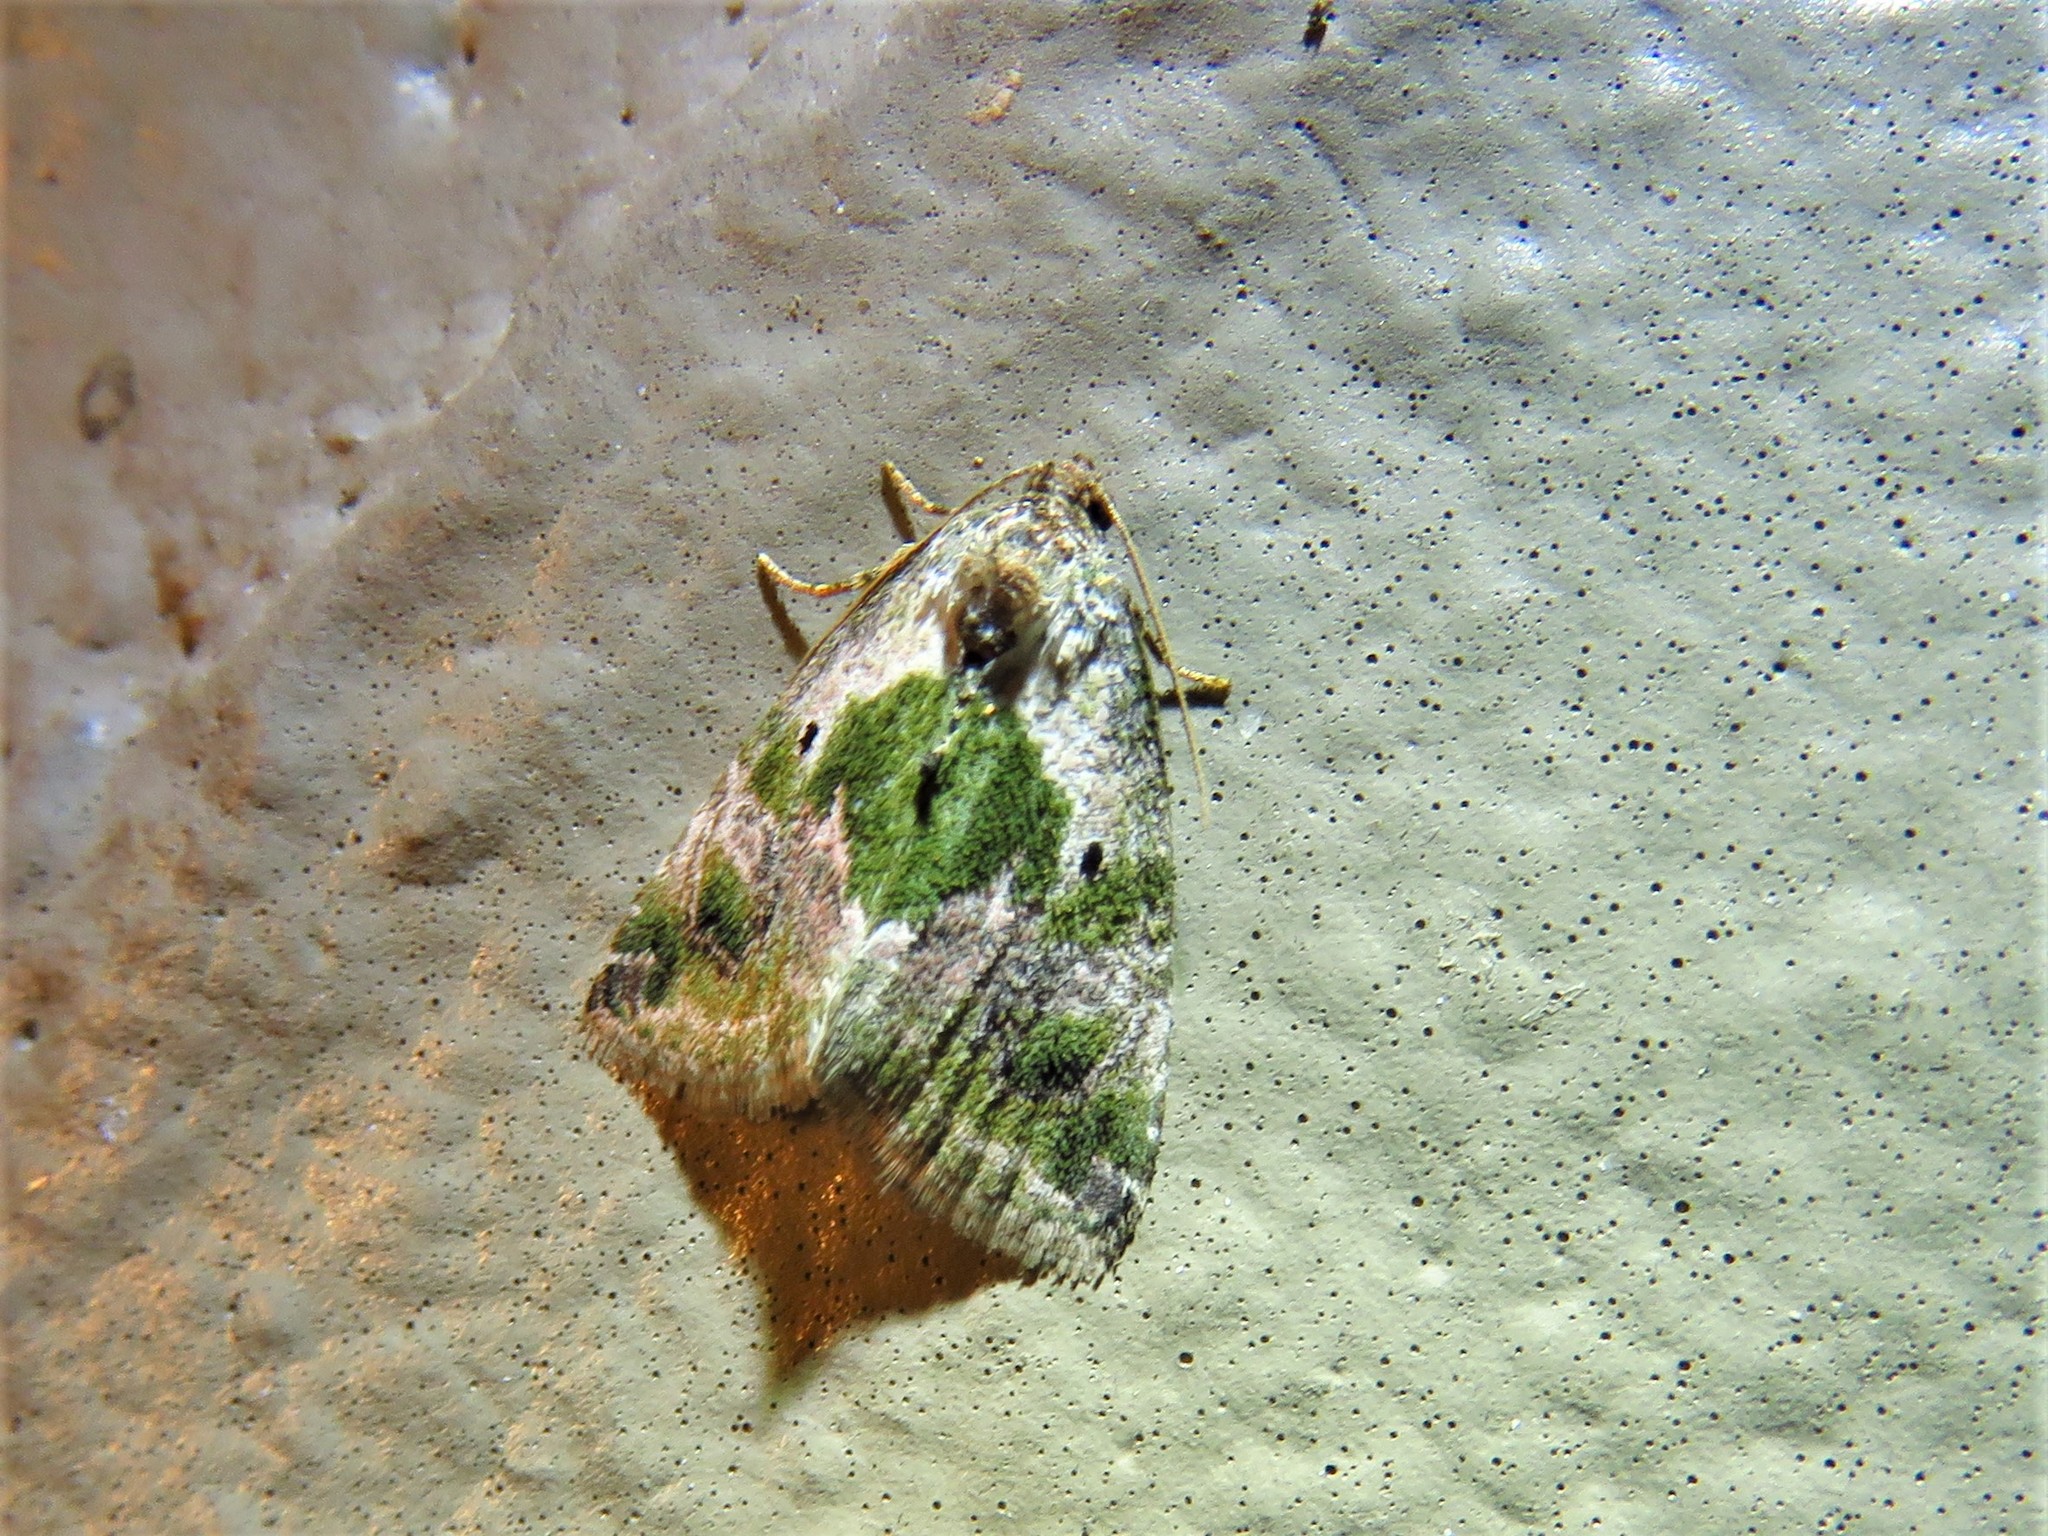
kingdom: Animalia
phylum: Arthropoda
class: Insecta
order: Lepidoptera
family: Noctuidae
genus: Maliattha
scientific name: Maliattha synochitis
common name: Black-dotted glyph
